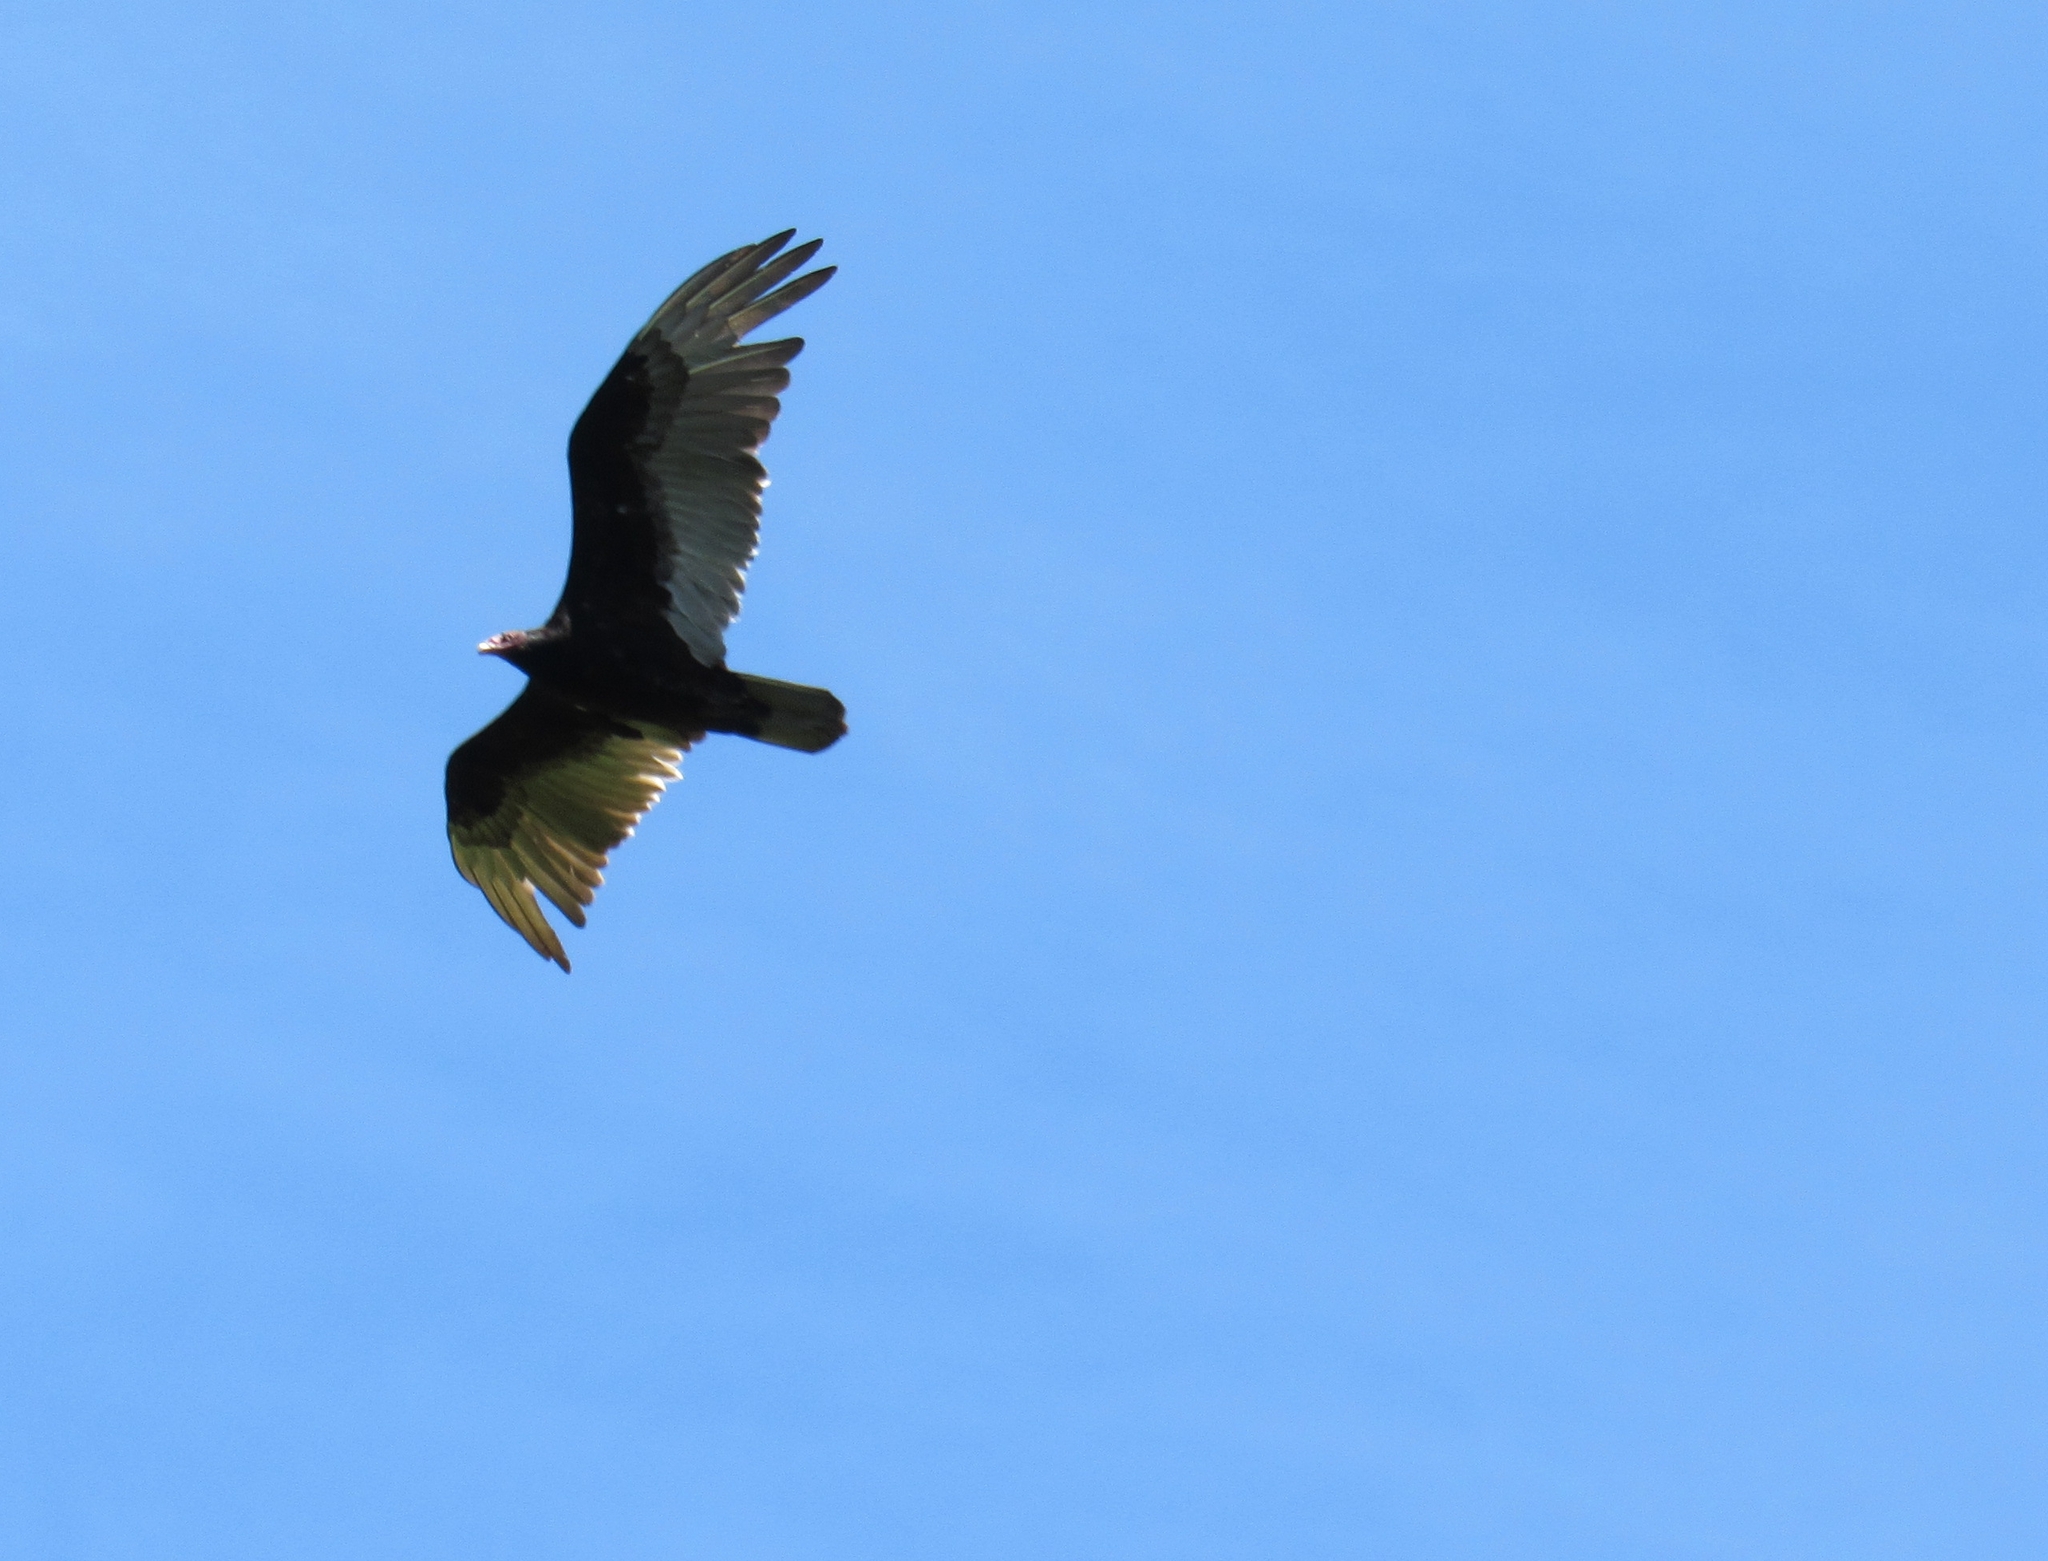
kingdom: Animalia
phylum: Chordata
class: Aves
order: Accipitriformes
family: Cathartidae
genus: Cathartes
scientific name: Cathartes aura
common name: Turkey vulture
